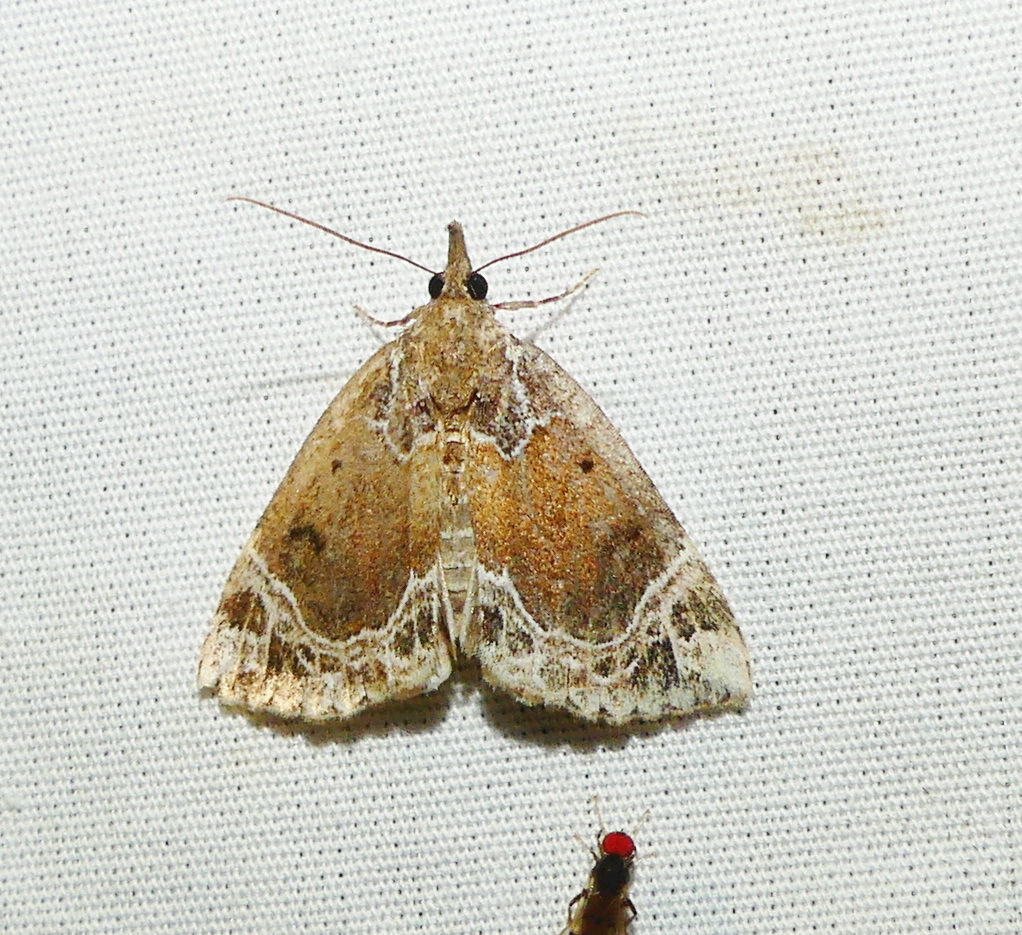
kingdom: Animalia
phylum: Arthropoda
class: Insecta
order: Lepidoptera
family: Erebidae
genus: Hypena
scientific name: Hypena abalienalis
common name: White-lined snout
